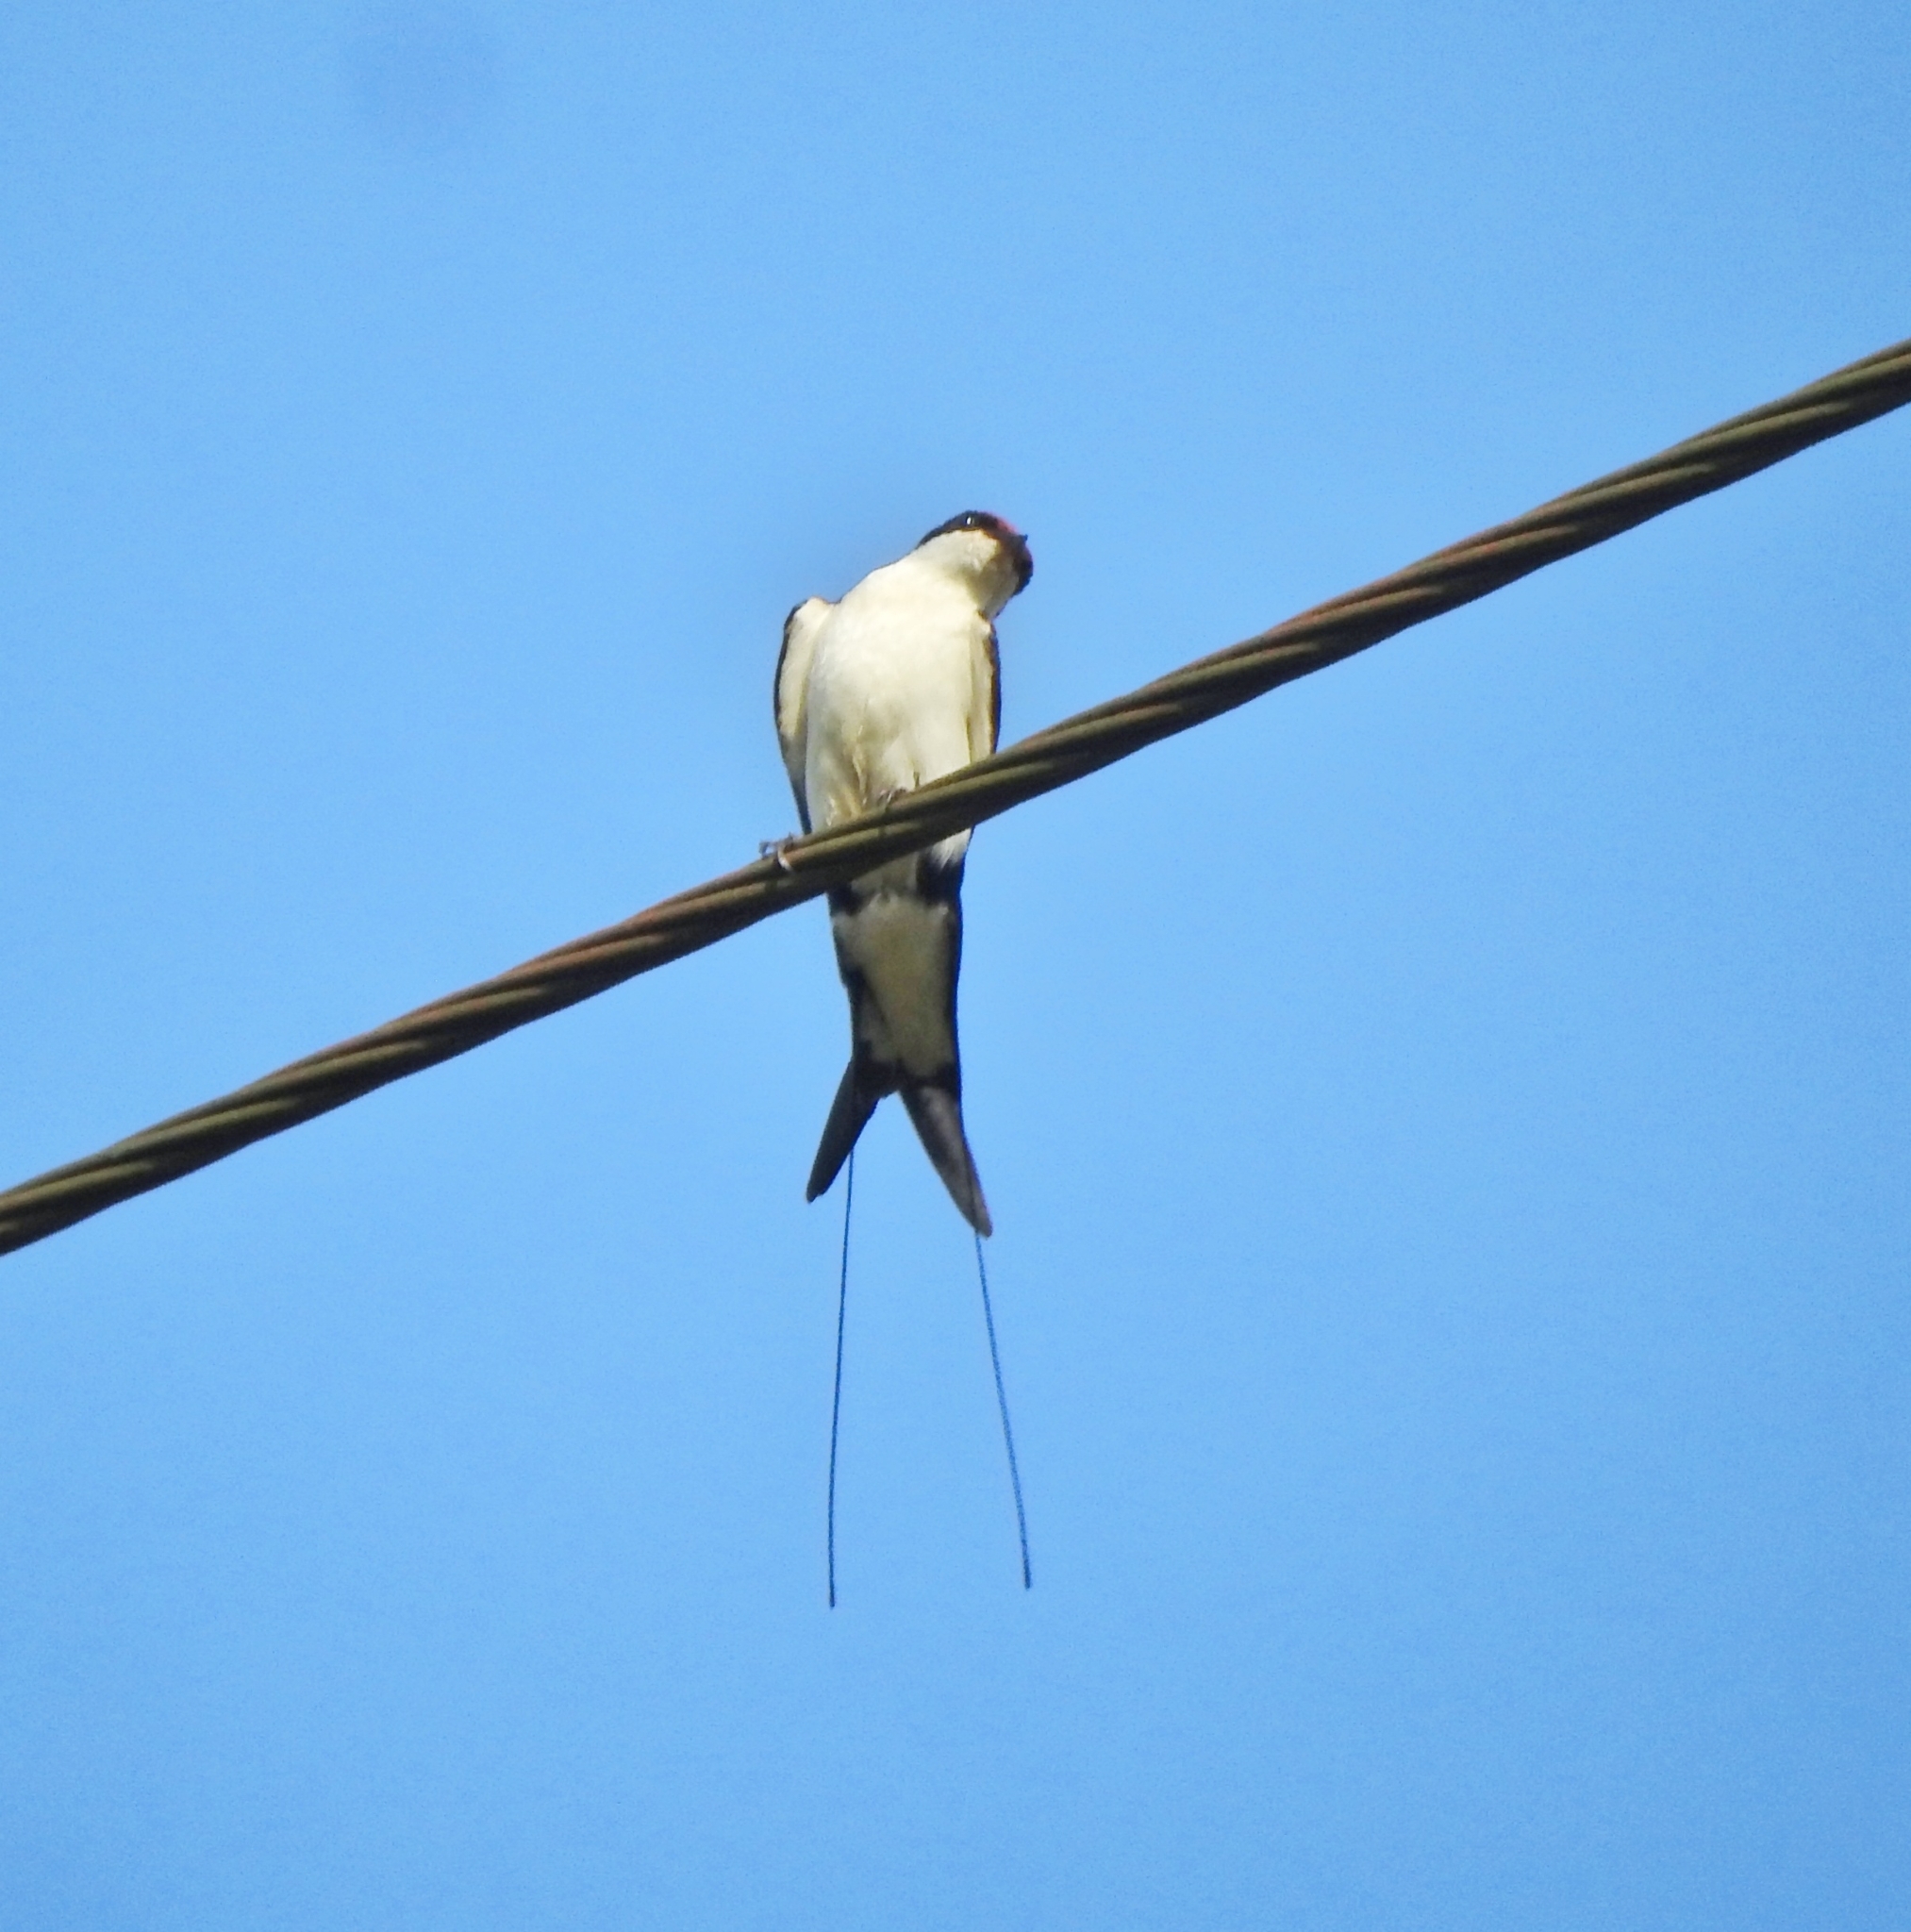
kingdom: Animalia
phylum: Chordata
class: Aves
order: Passeriformes
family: Hirundinidae
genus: Hirundo
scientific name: Hirundo smithii
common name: Wire-tailed swallow
